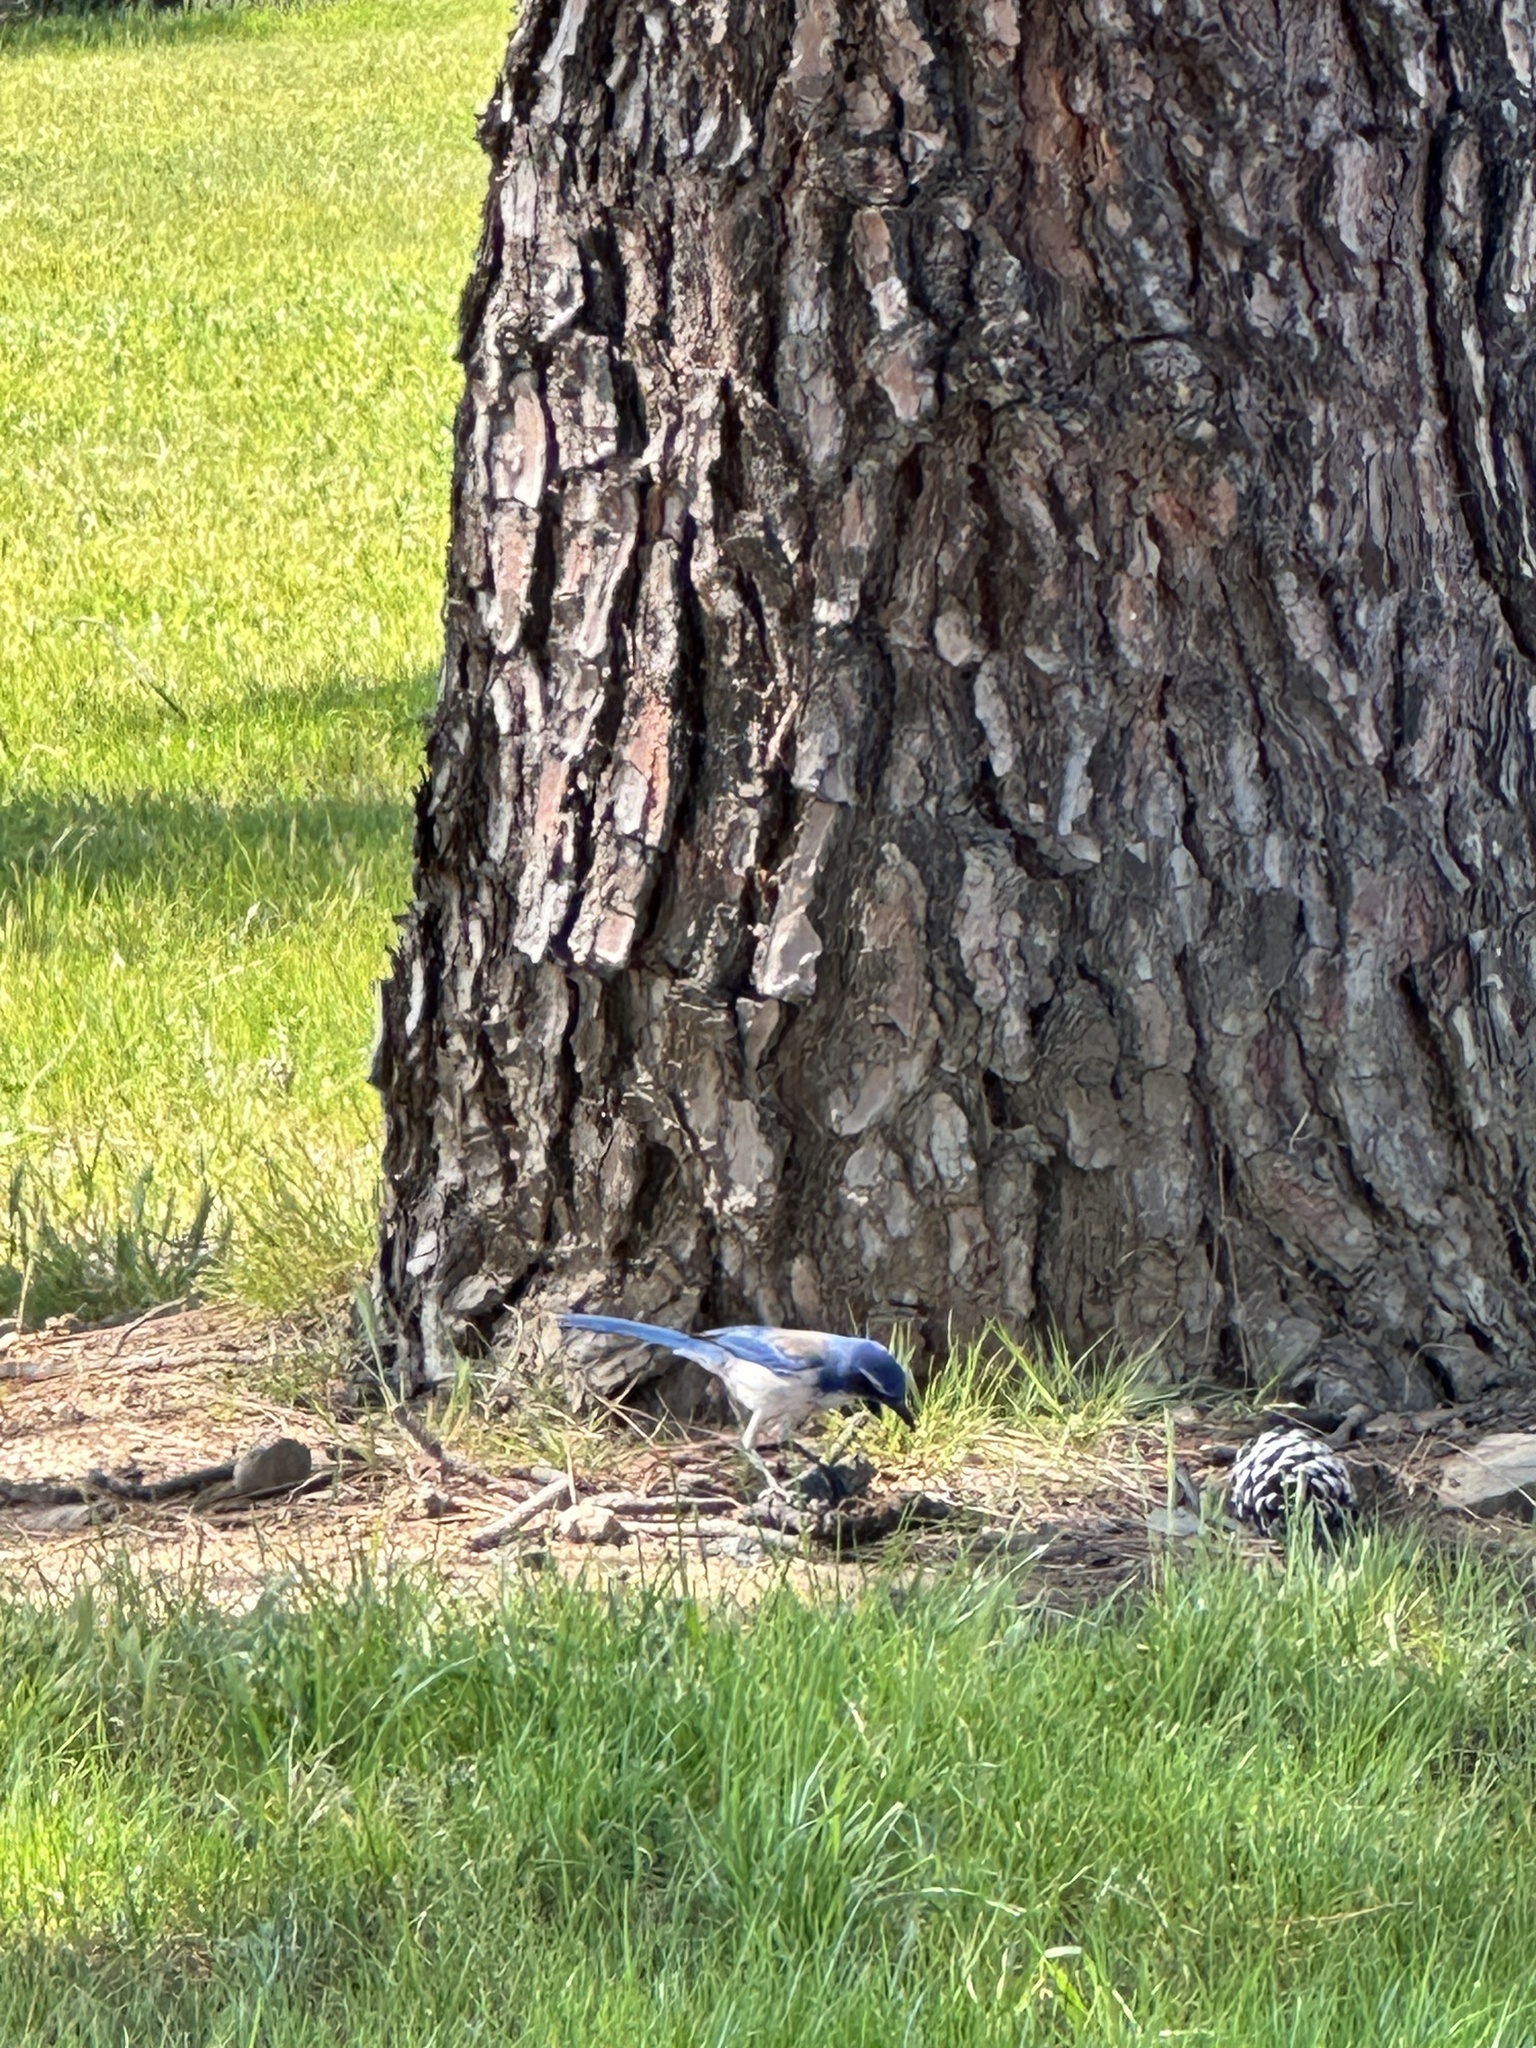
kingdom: Animalia
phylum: Chordata
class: Aves
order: Passeriformes
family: Corvidae
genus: Aphelocoma
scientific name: Aphelocoma californica
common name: California scrub-jay
